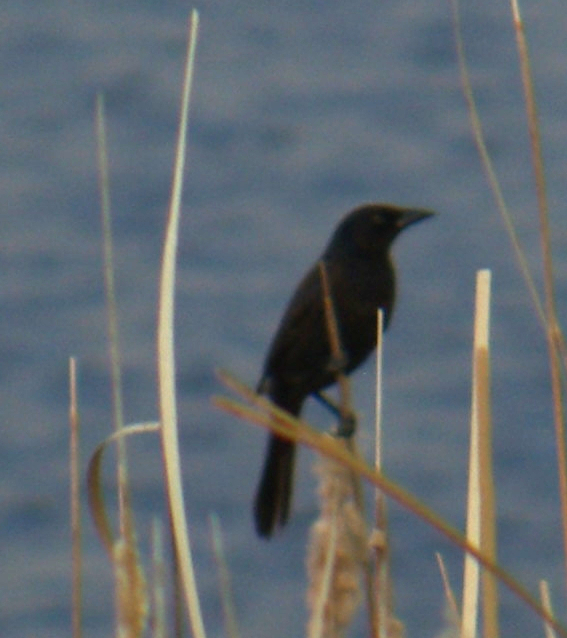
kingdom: Animalia
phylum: Chordata
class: Aves
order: Passeriformes
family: Icteridae
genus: Quiscalus
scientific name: Quiscalus quiscula
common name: Common grackle
